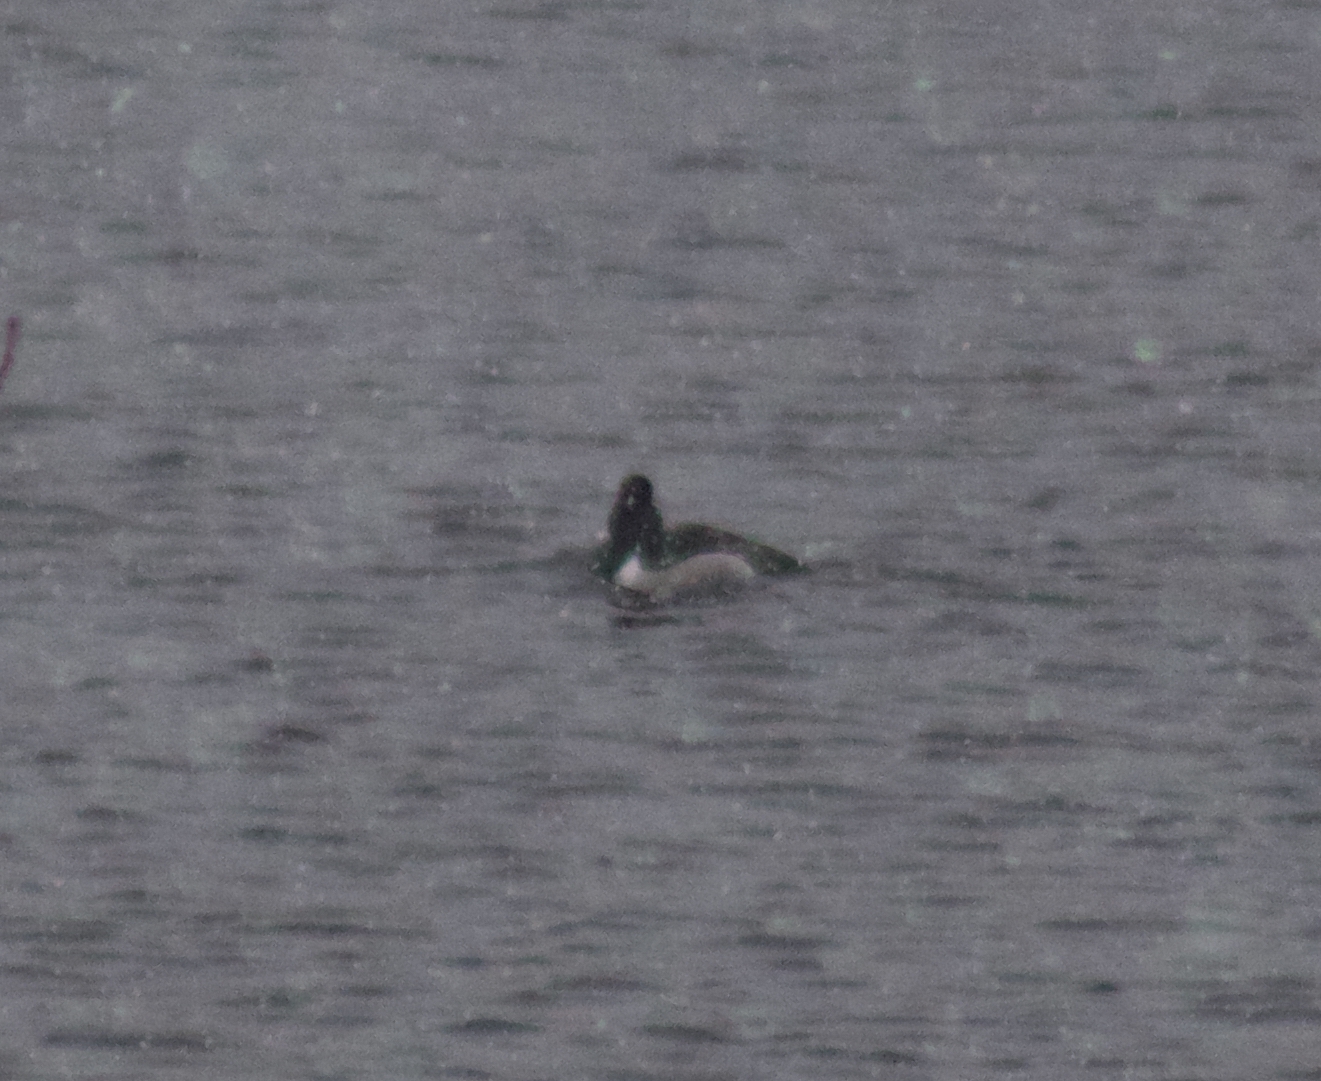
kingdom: Animalia
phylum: Chordata
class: Aves
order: Anseriformes
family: Anatidae
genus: Aythya
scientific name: Aythya collaris
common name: Ring-necked duck
